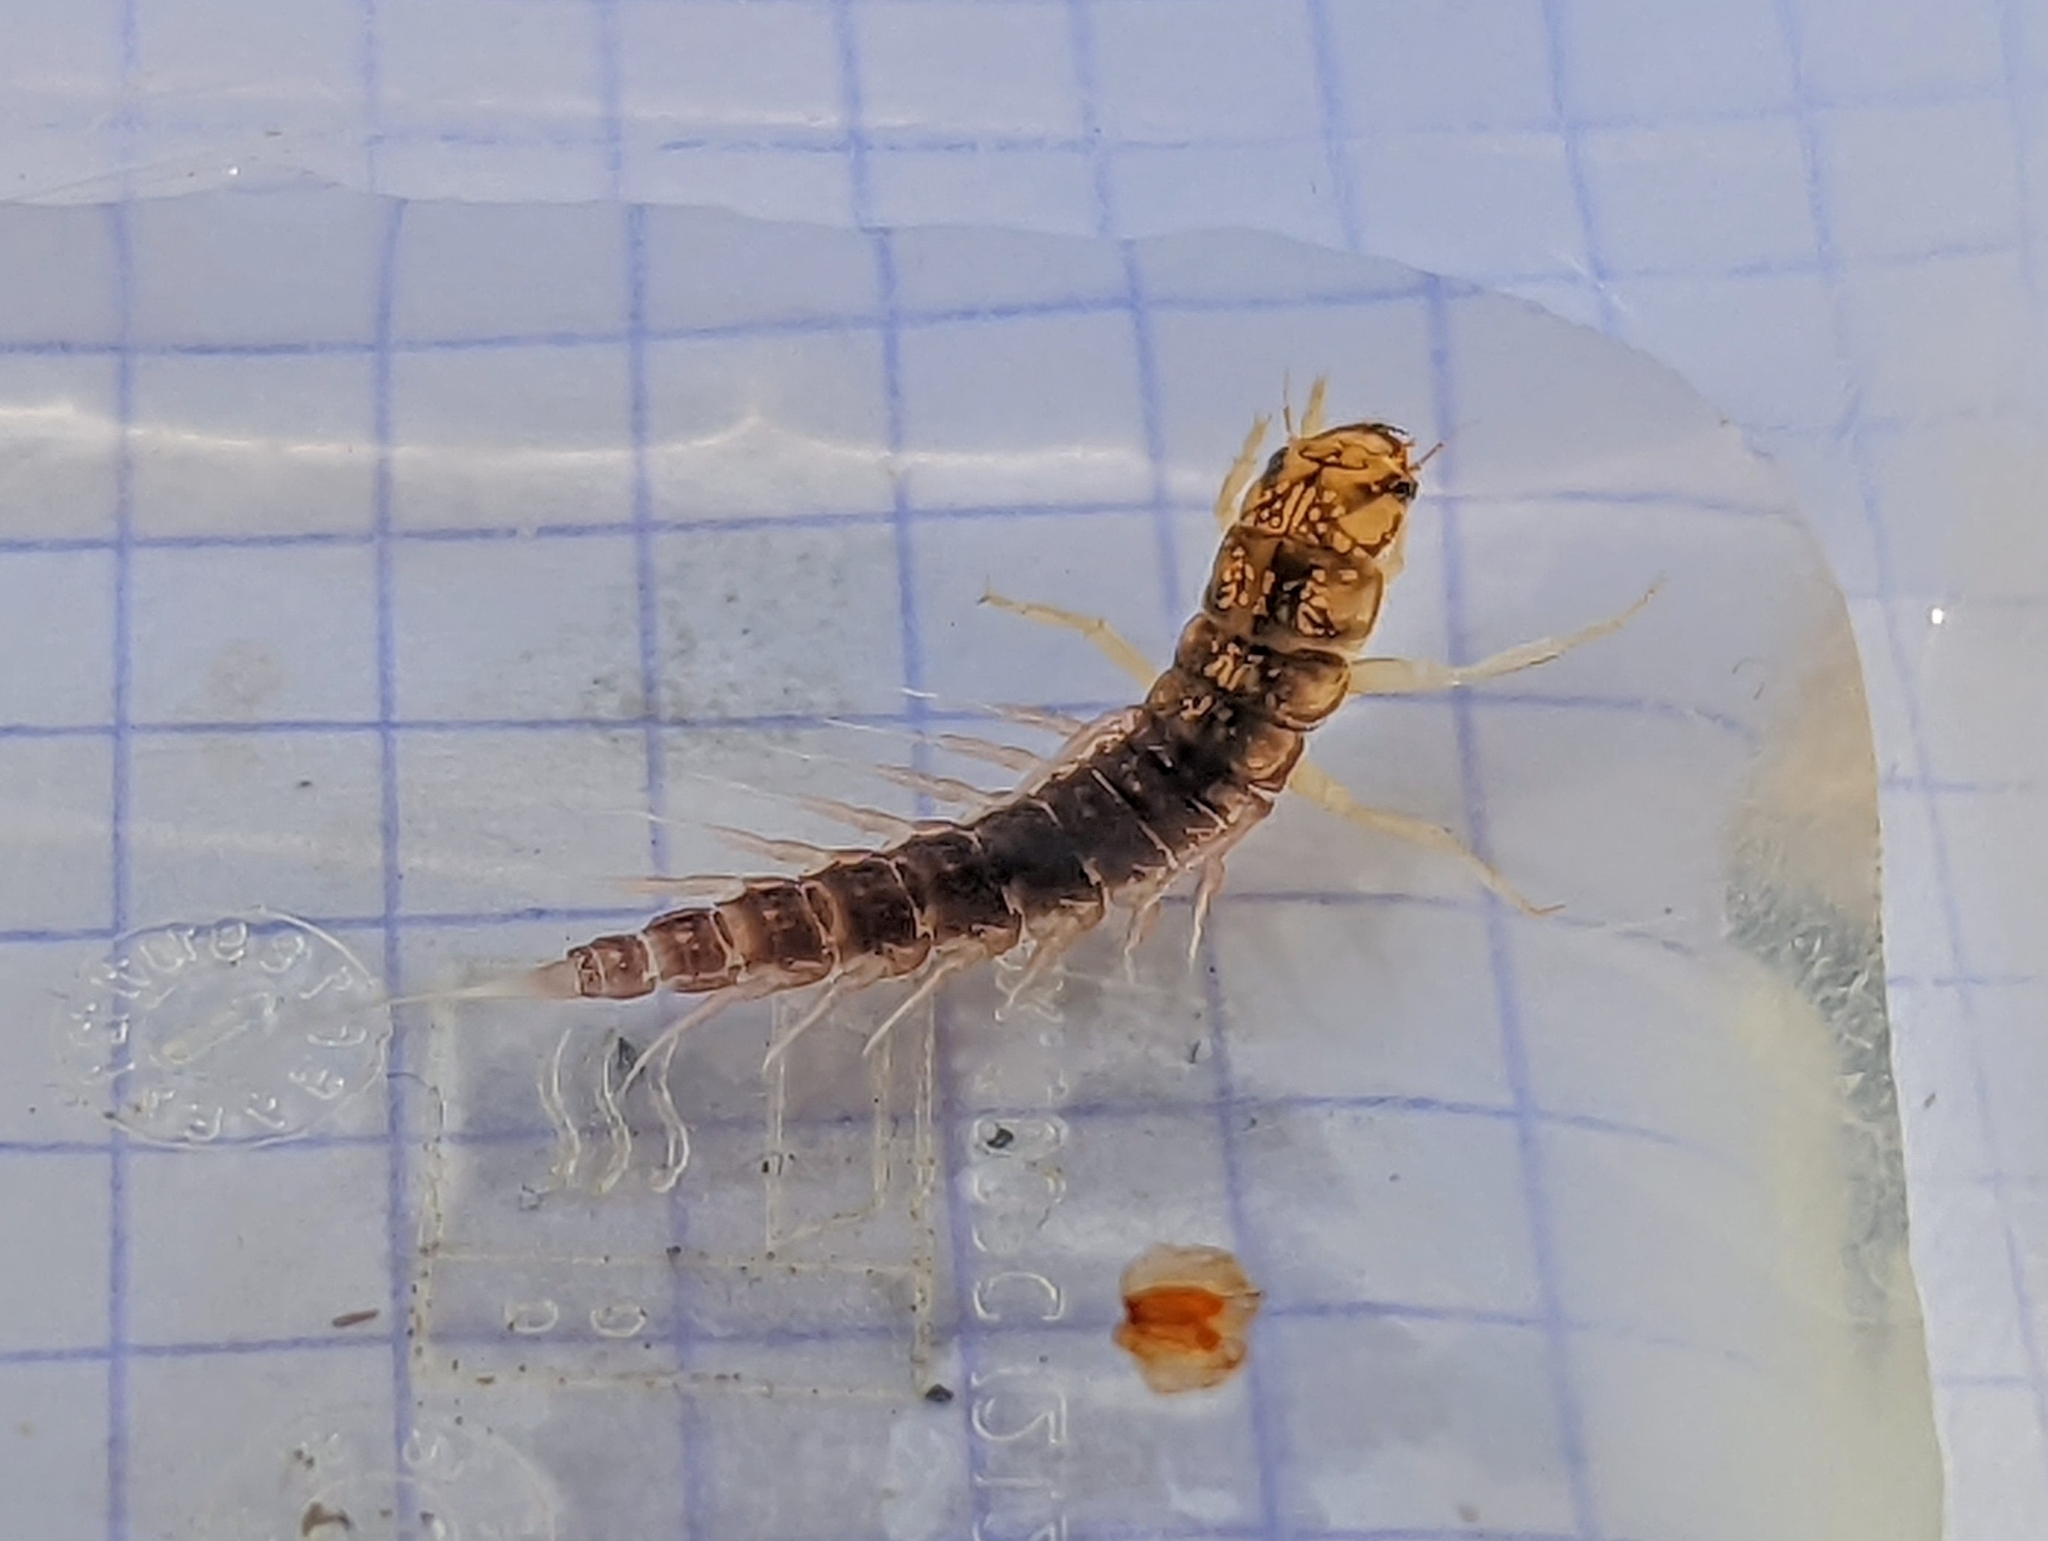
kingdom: Animalia
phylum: Arthropoda
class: Insecta
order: Megaloptera
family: Sialidae
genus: Sialis
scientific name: Sialis
